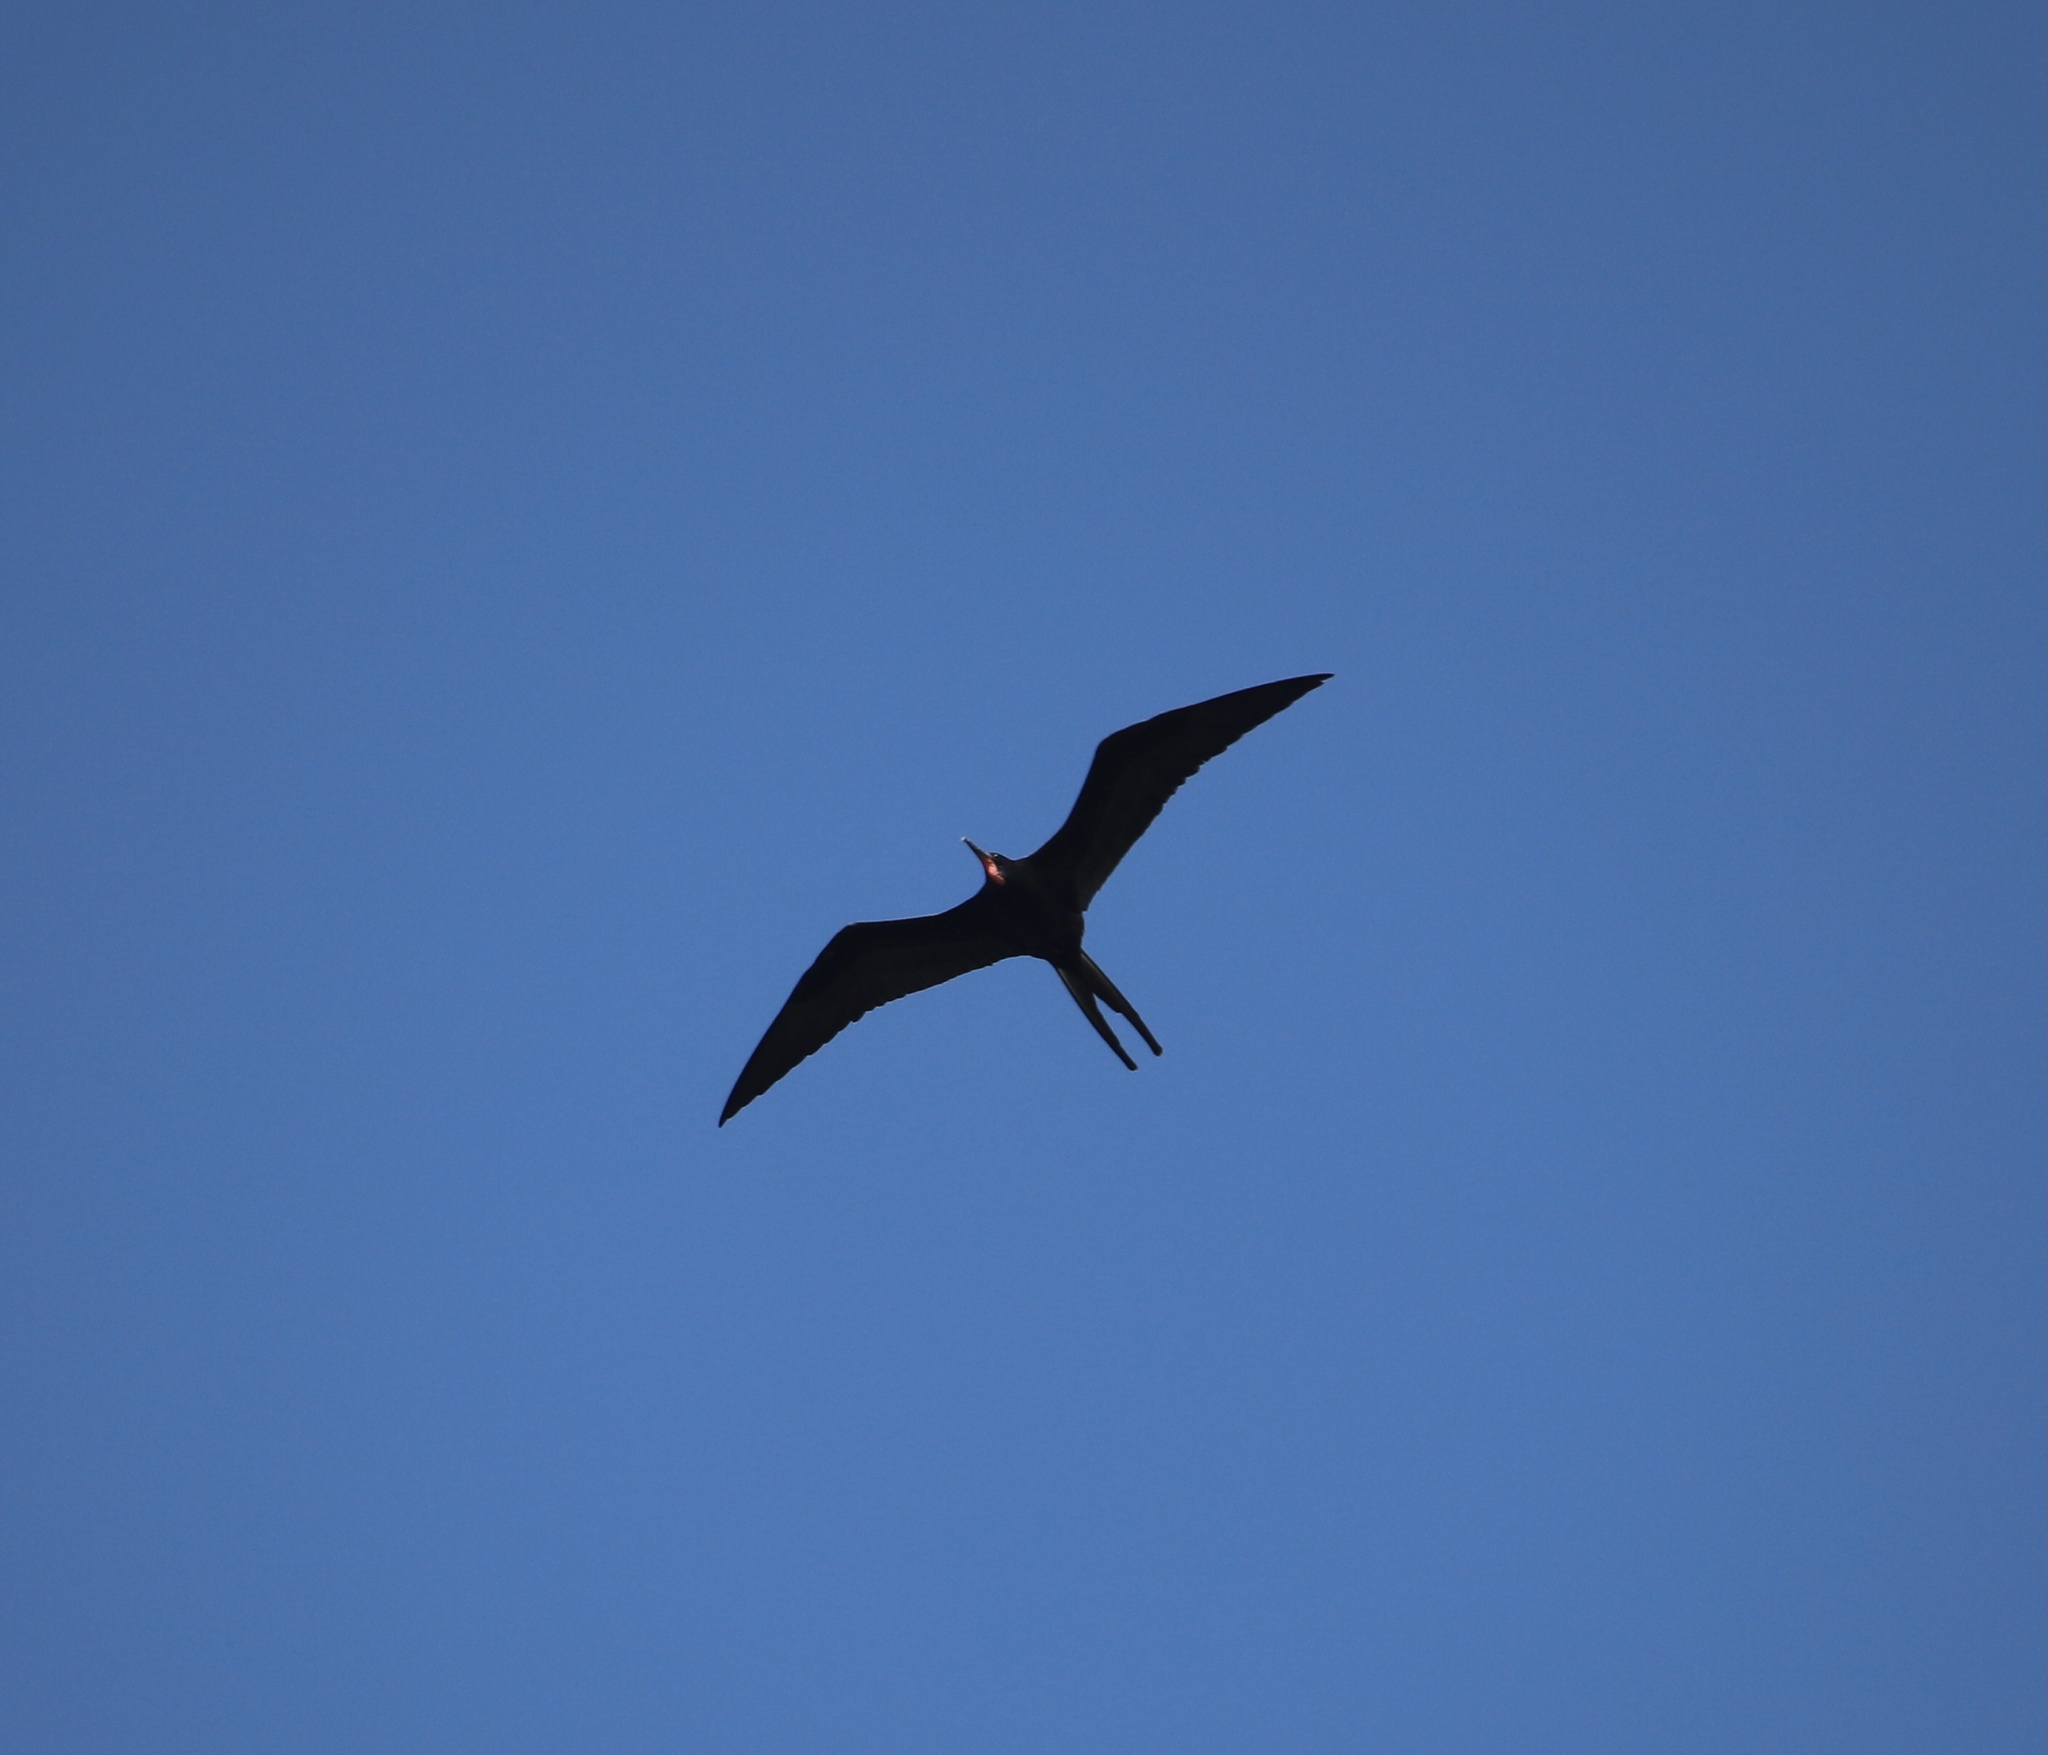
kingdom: Animalia
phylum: Chordata
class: Aves
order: Suliformes
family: Fregatidae
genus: Fregata
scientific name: Fregata magnificens
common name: Magnificent frigatebird
